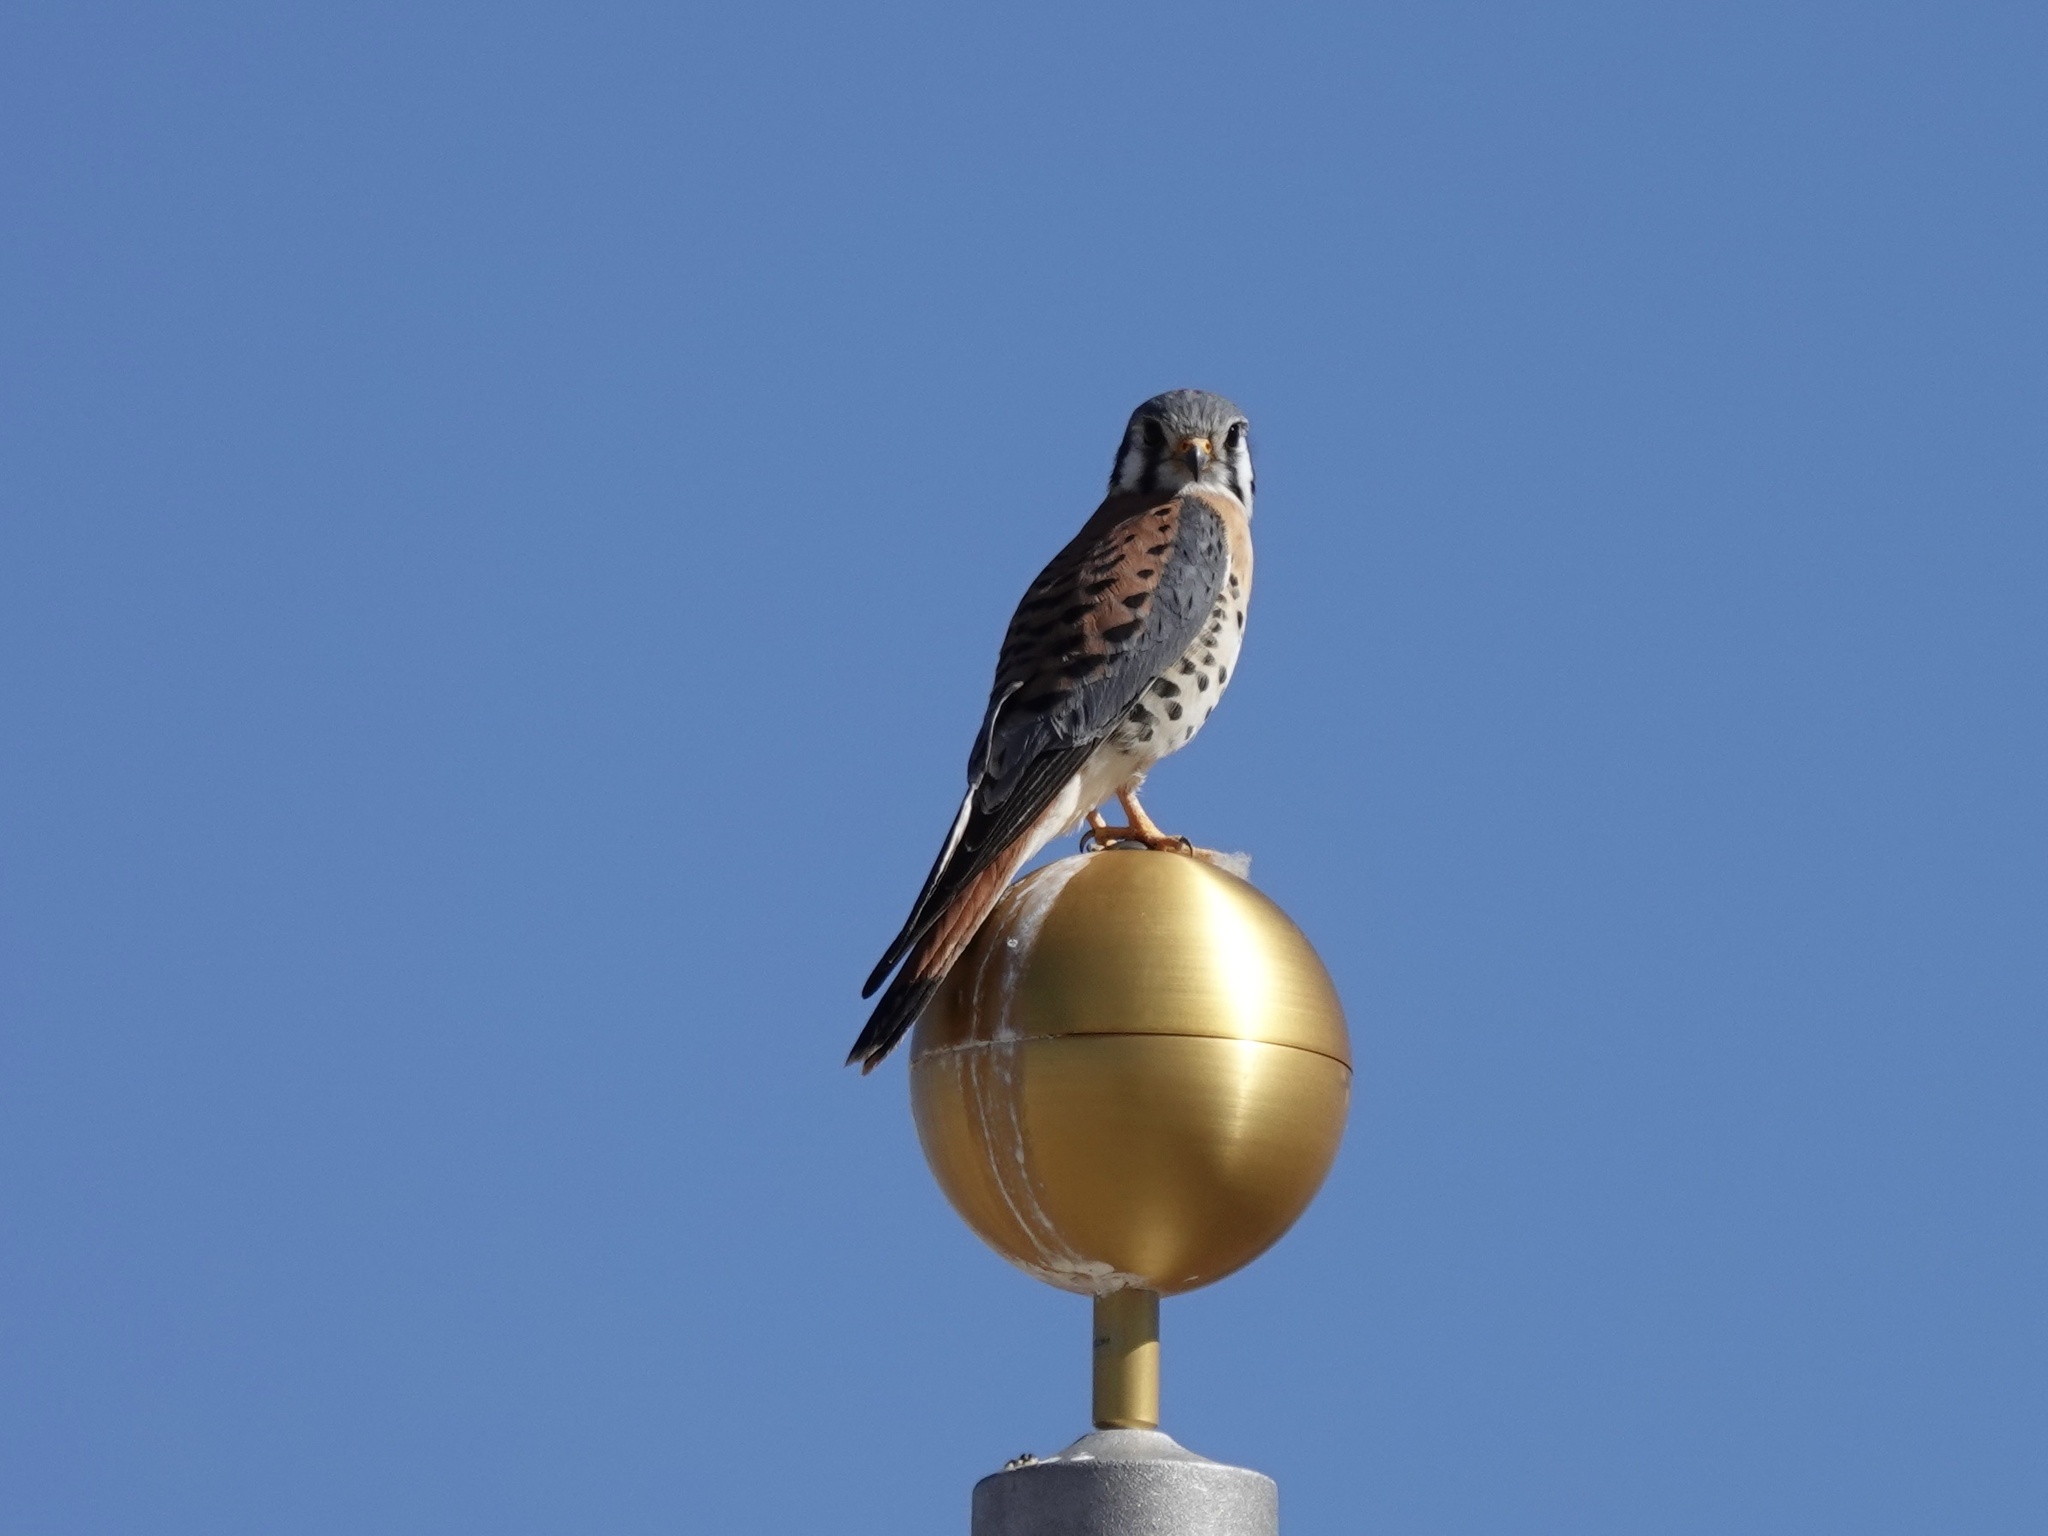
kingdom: Animalia
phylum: Chordata
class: Aves
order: Falconiformes
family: Falconidae
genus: Falco
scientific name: Falco sparverius
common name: American kestrel
